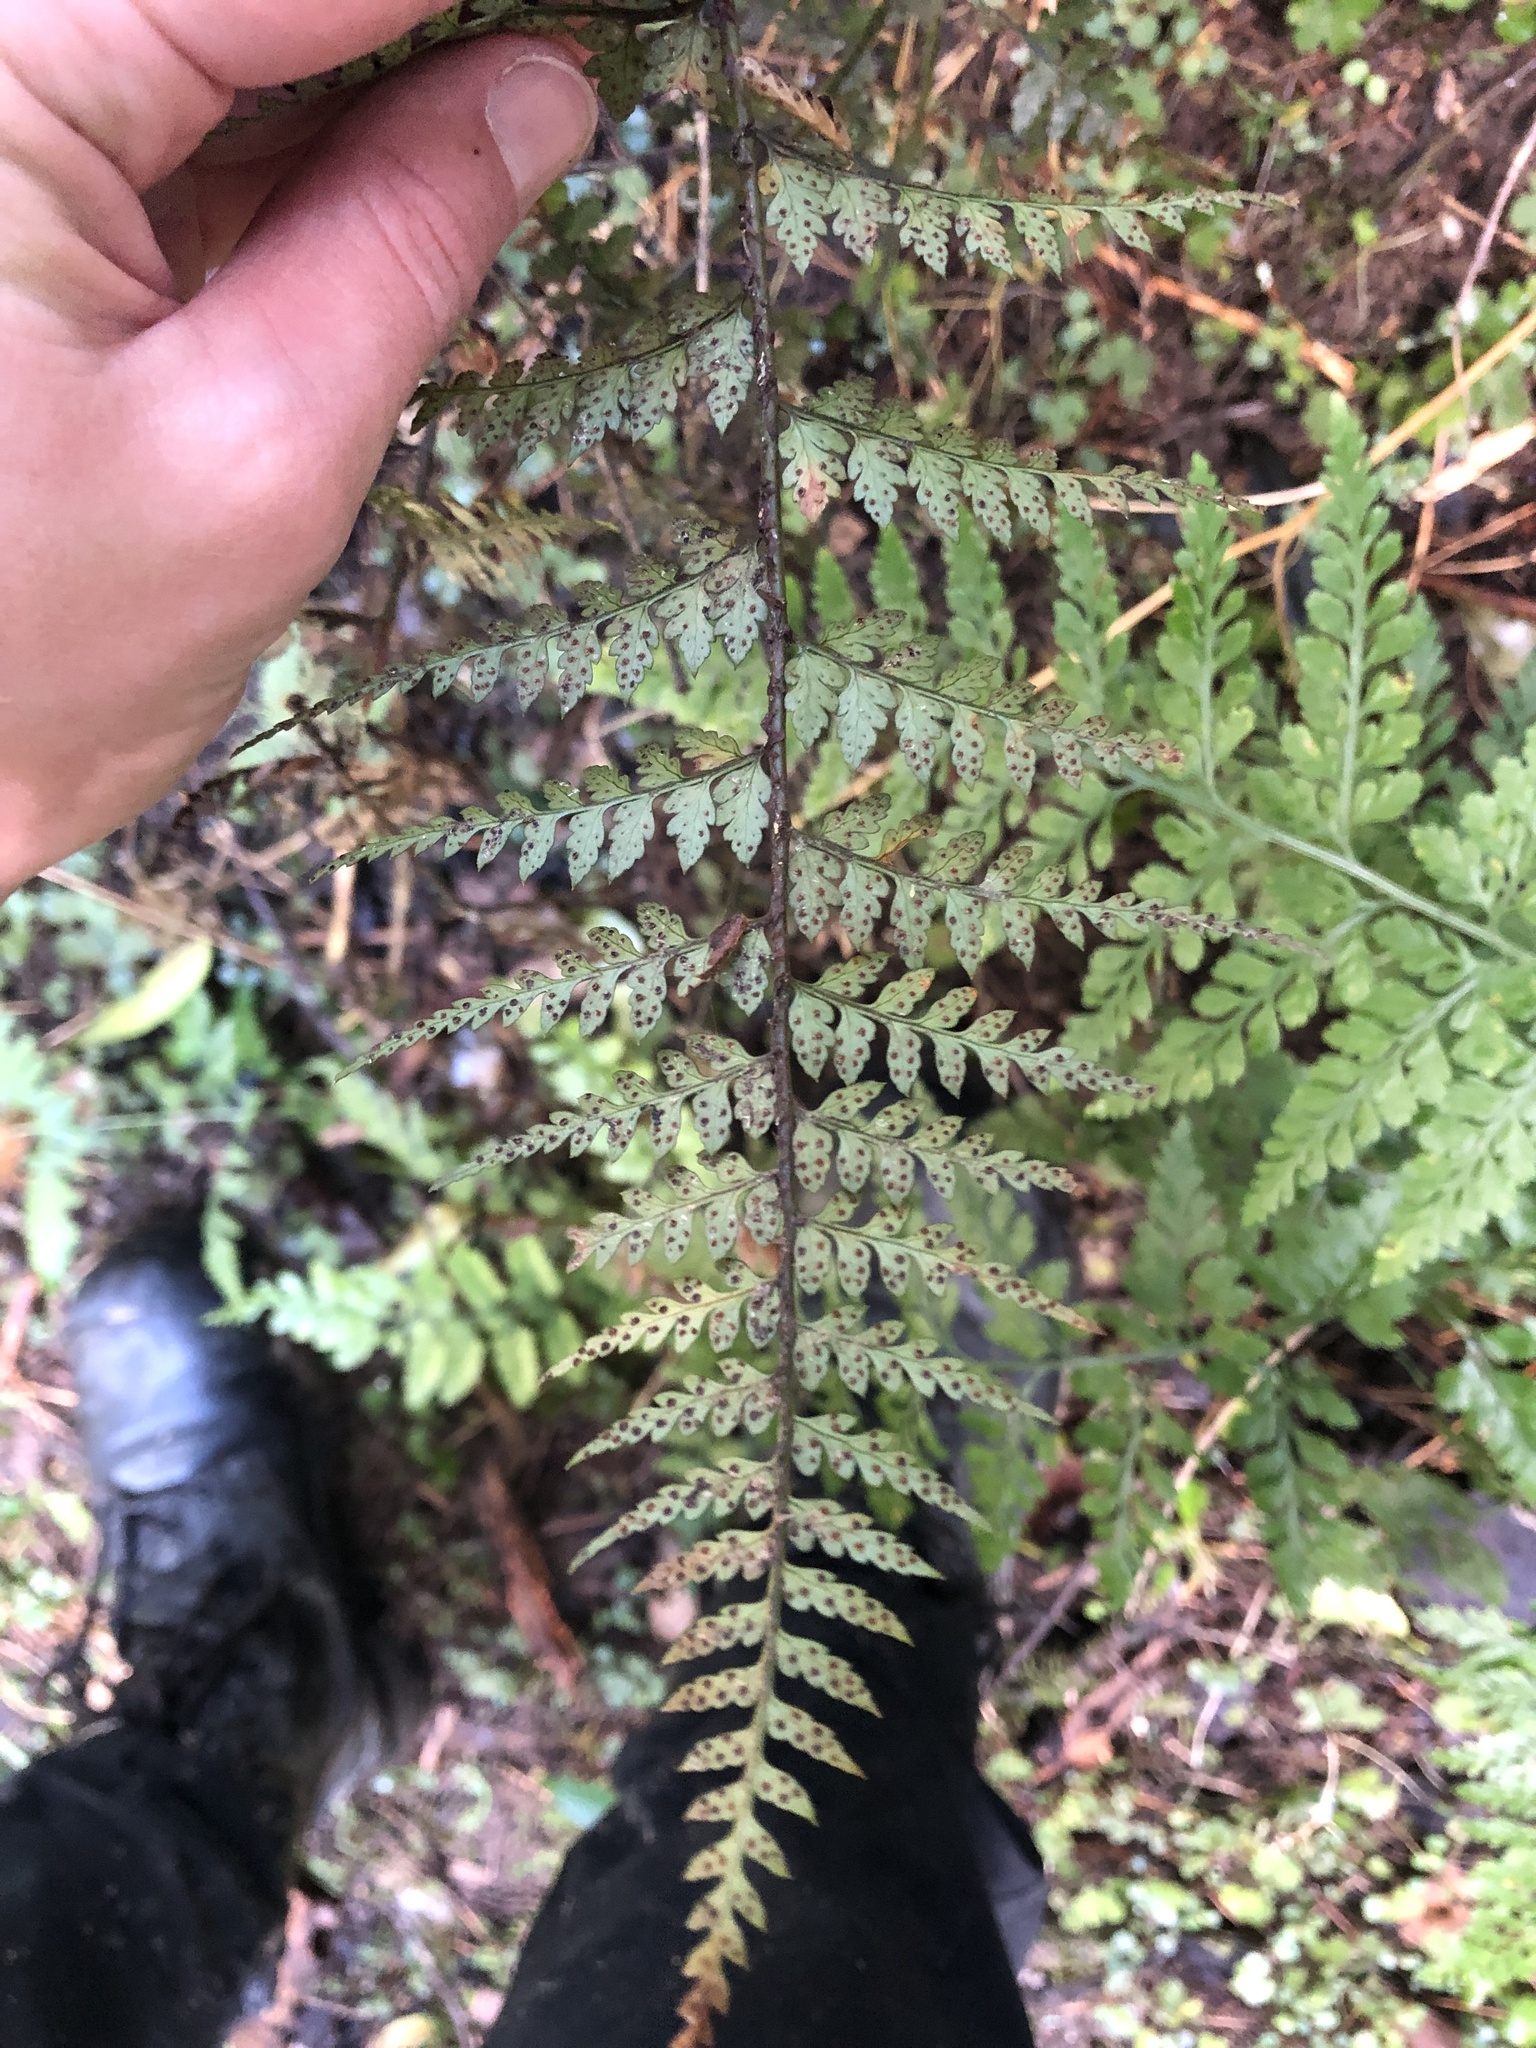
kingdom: Plantae
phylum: Tracheophyta
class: Polypodiopsida
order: Polypodiales
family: Dryopteridaceae
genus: Polystichum
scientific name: Polystichum oculatum
